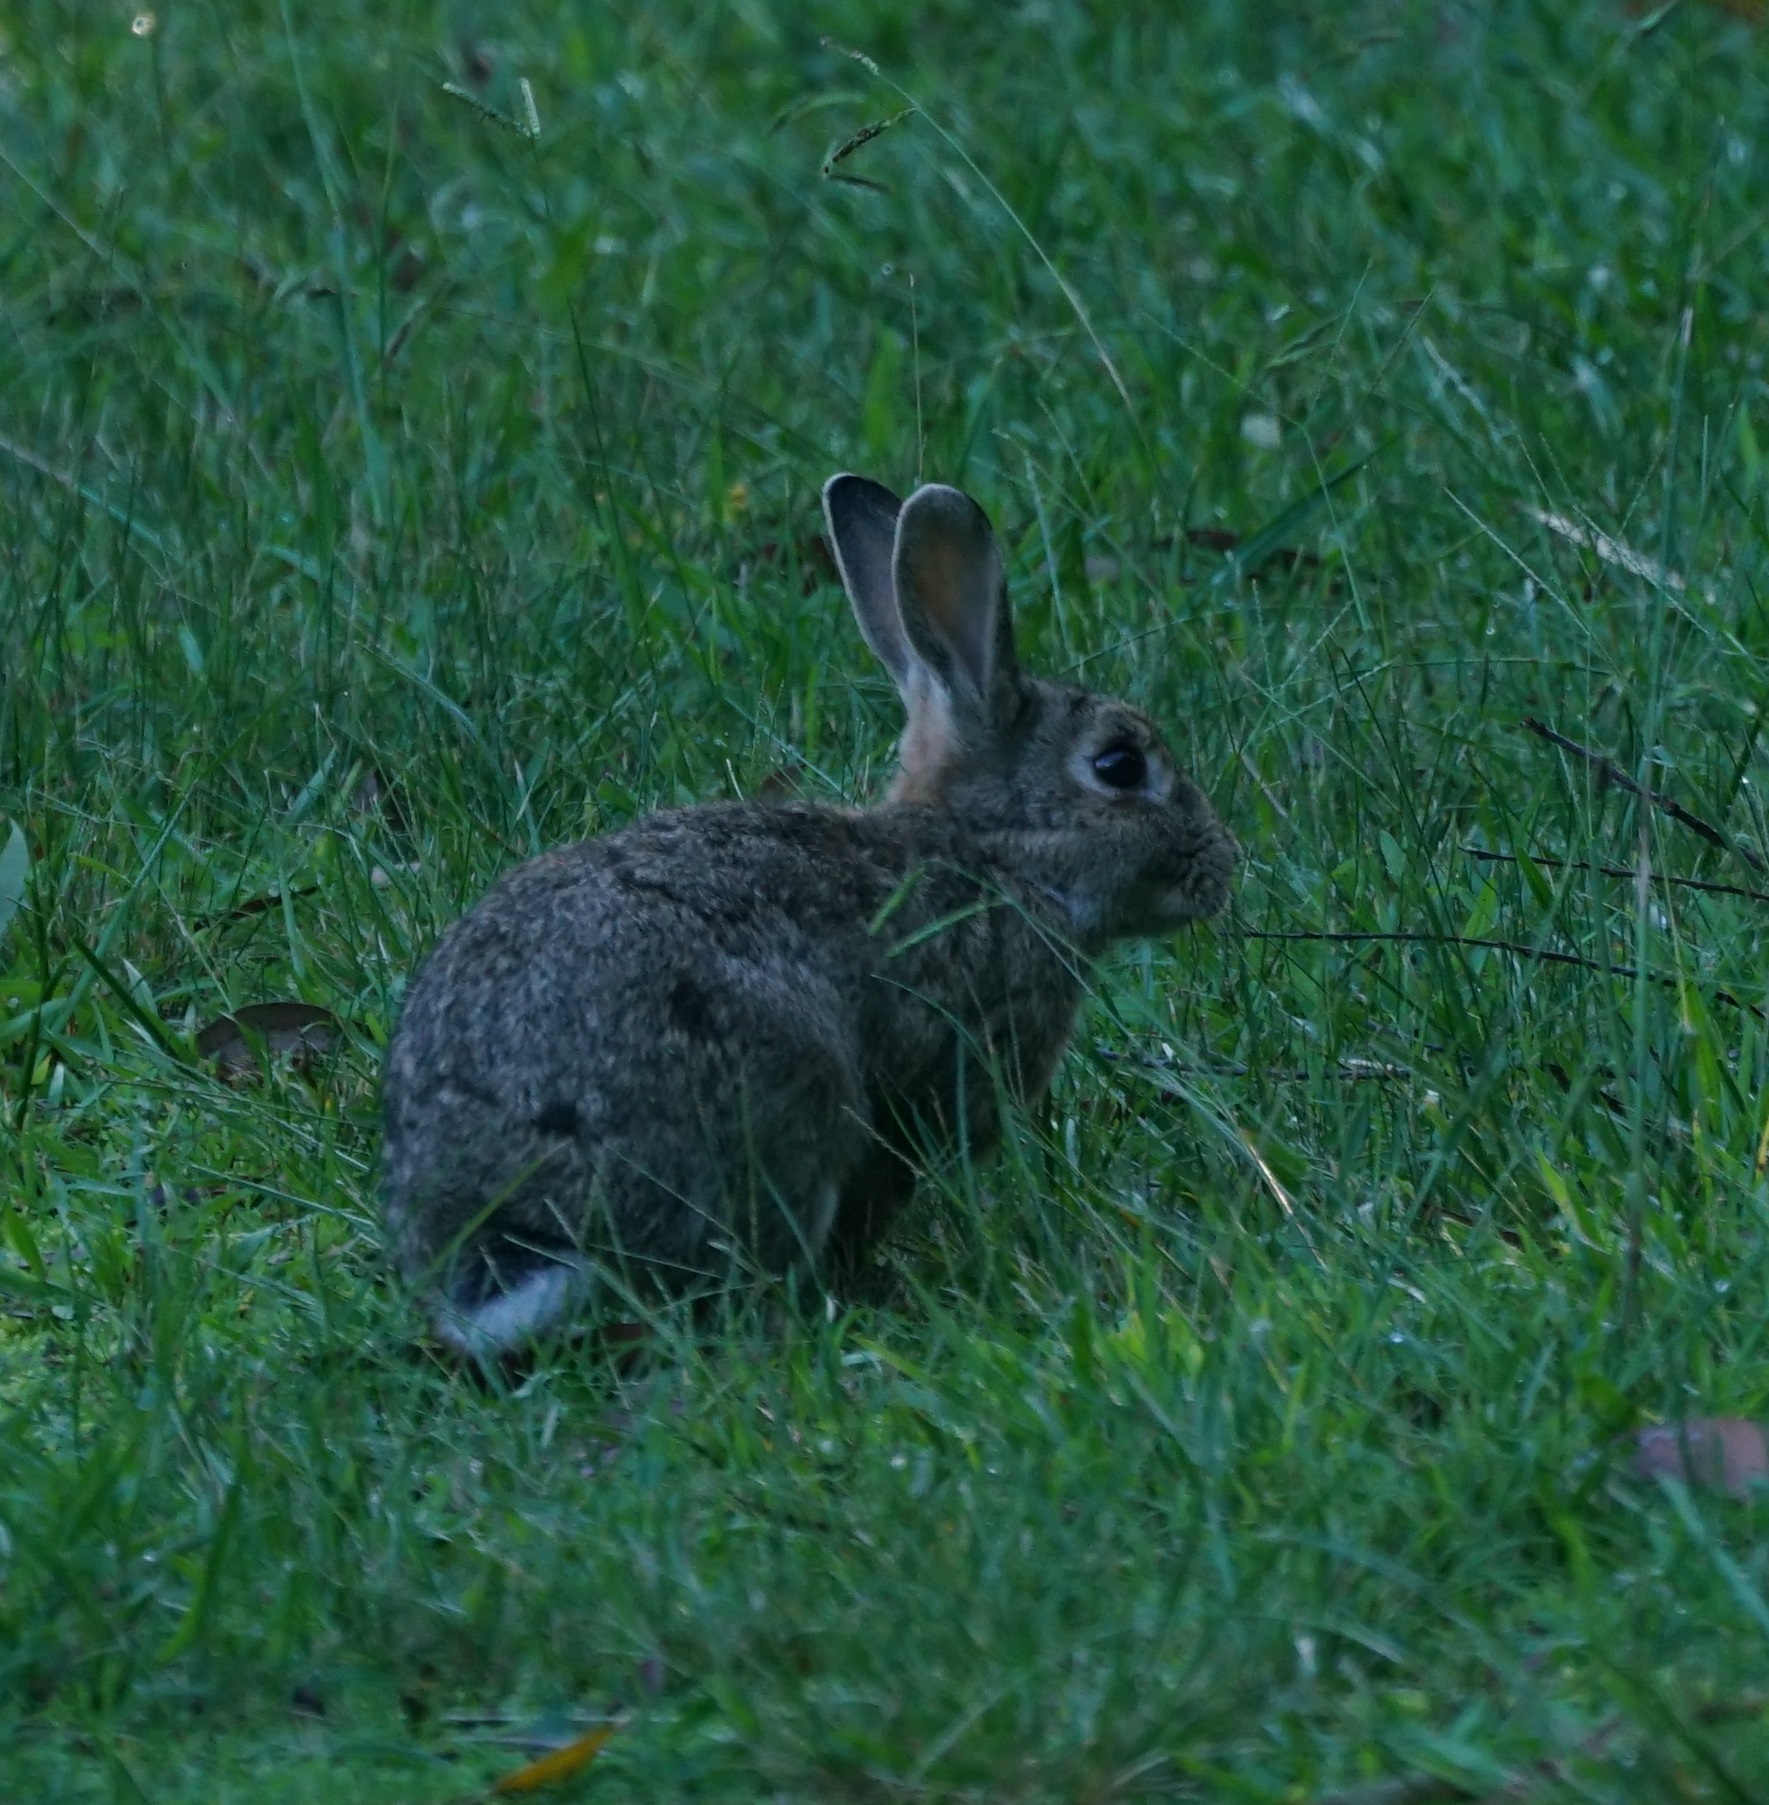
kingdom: Animalia
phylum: Chordata
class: Mammalia
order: Lagomorpha
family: Leporidae
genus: Oryctolagus
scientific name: Oryctolagus cuniculus
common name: European rabbit
